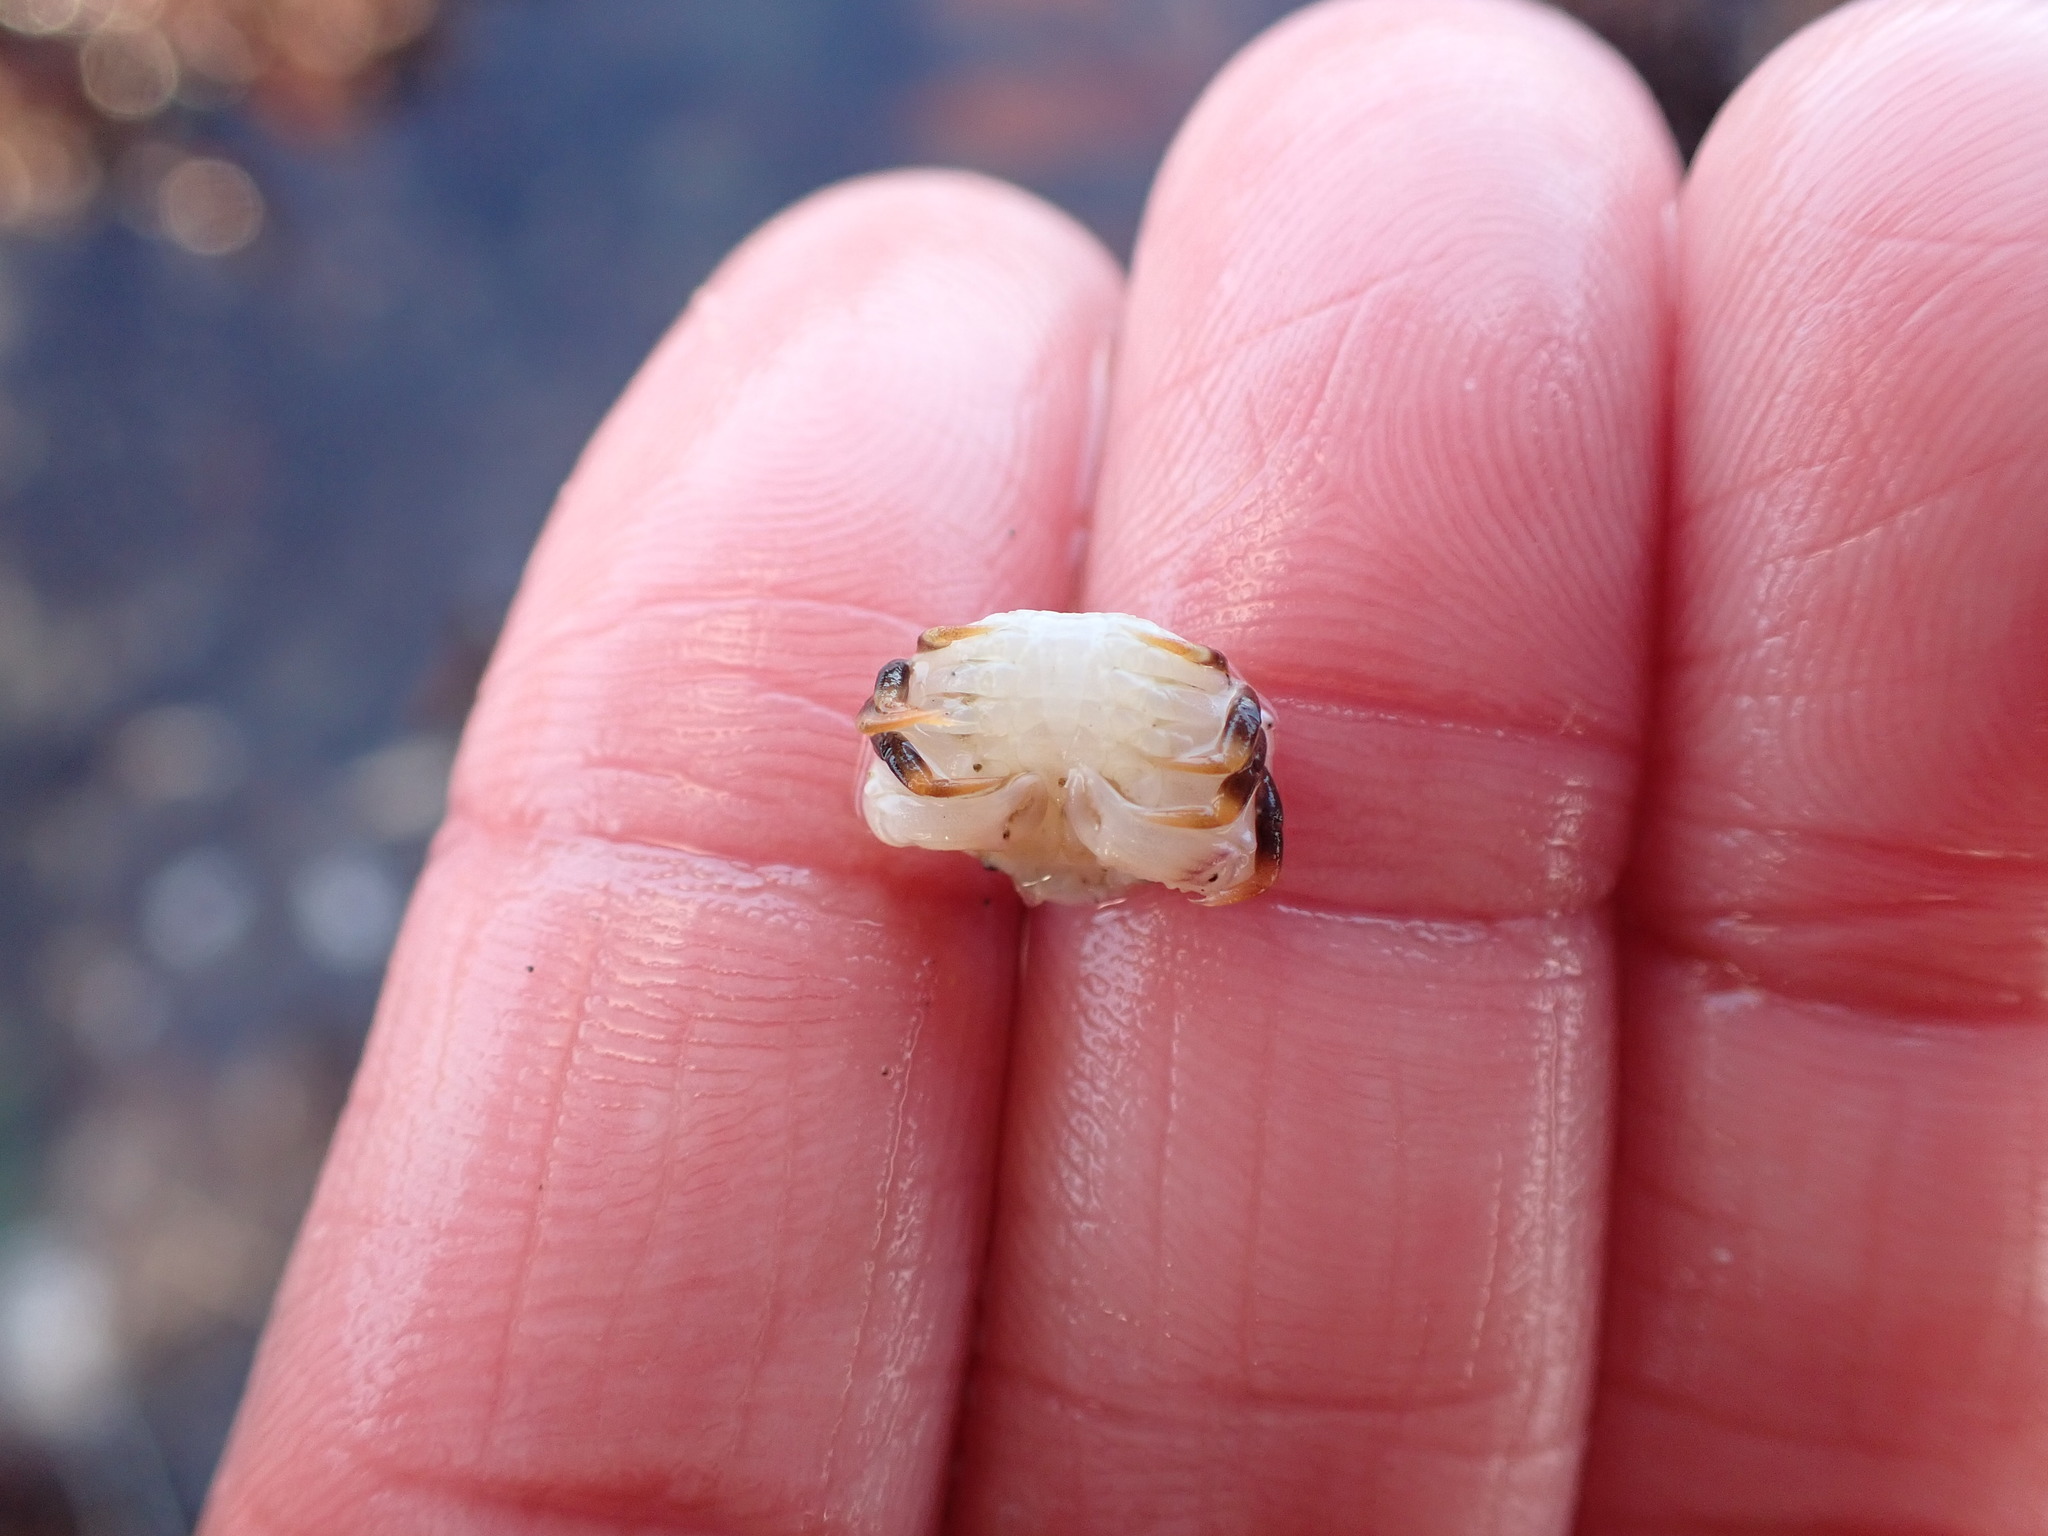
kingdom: Animalia
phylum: Arthropoda
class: Malacostraca
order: Decapoda
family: Cancridae
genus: Cancer
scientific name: Cancer productus
